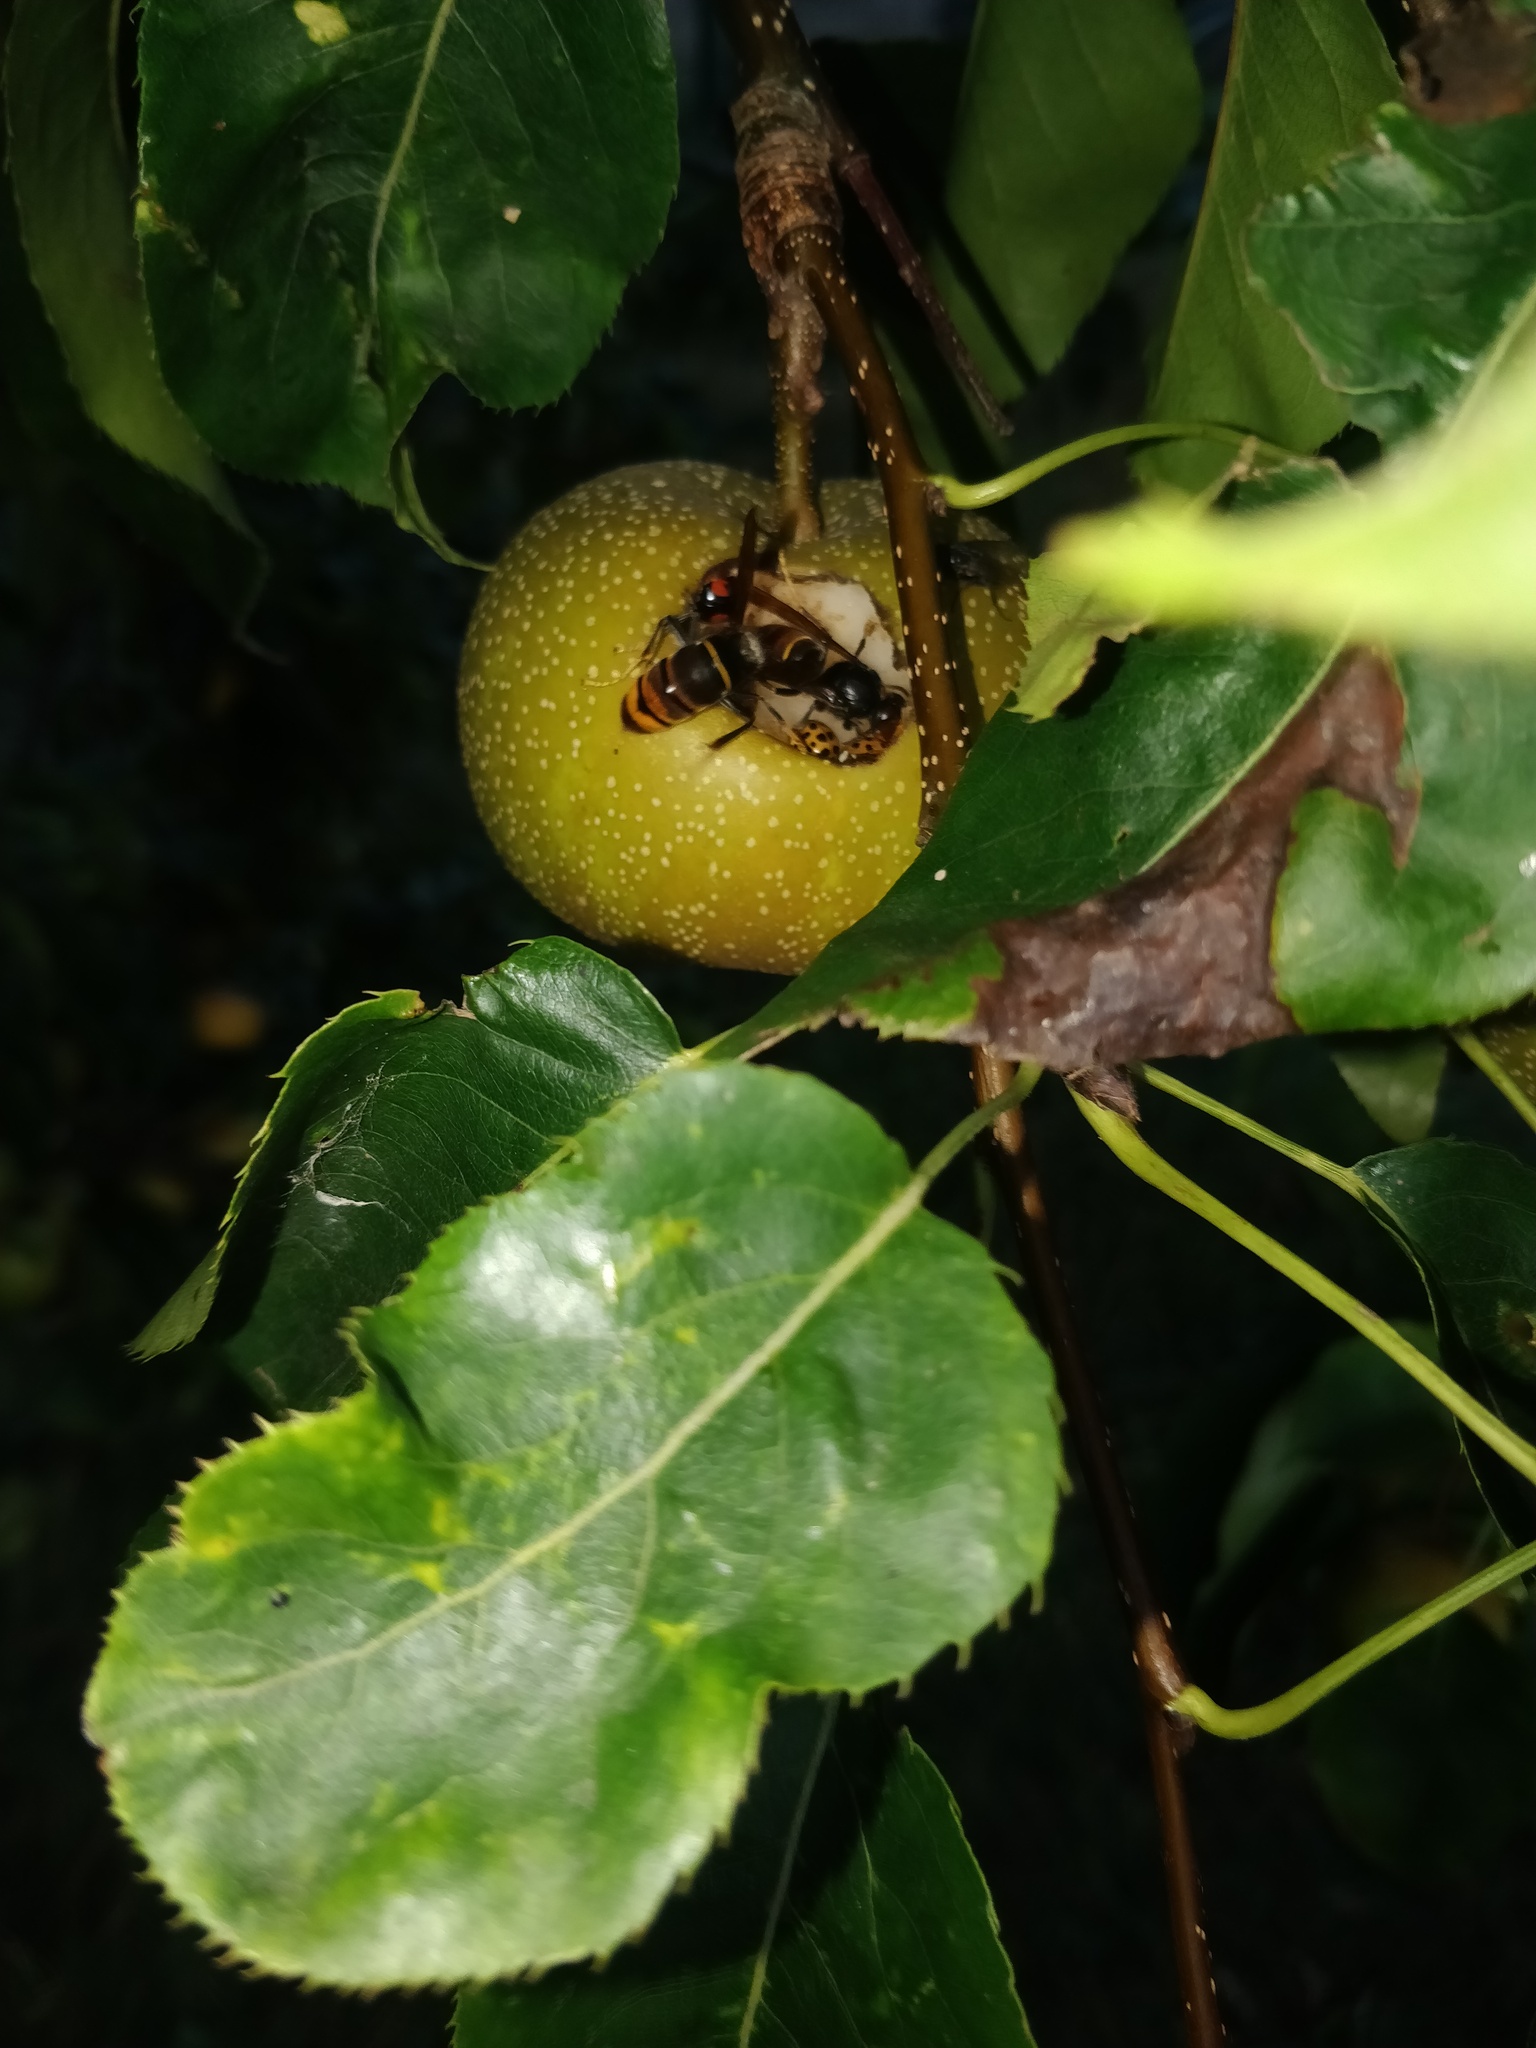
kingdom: Animalia
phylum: Arthropoda
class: Insecta
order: Hymenoptera
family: Vespidae
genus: Vespa
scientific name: Vespa velutina
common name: Asian hornet
